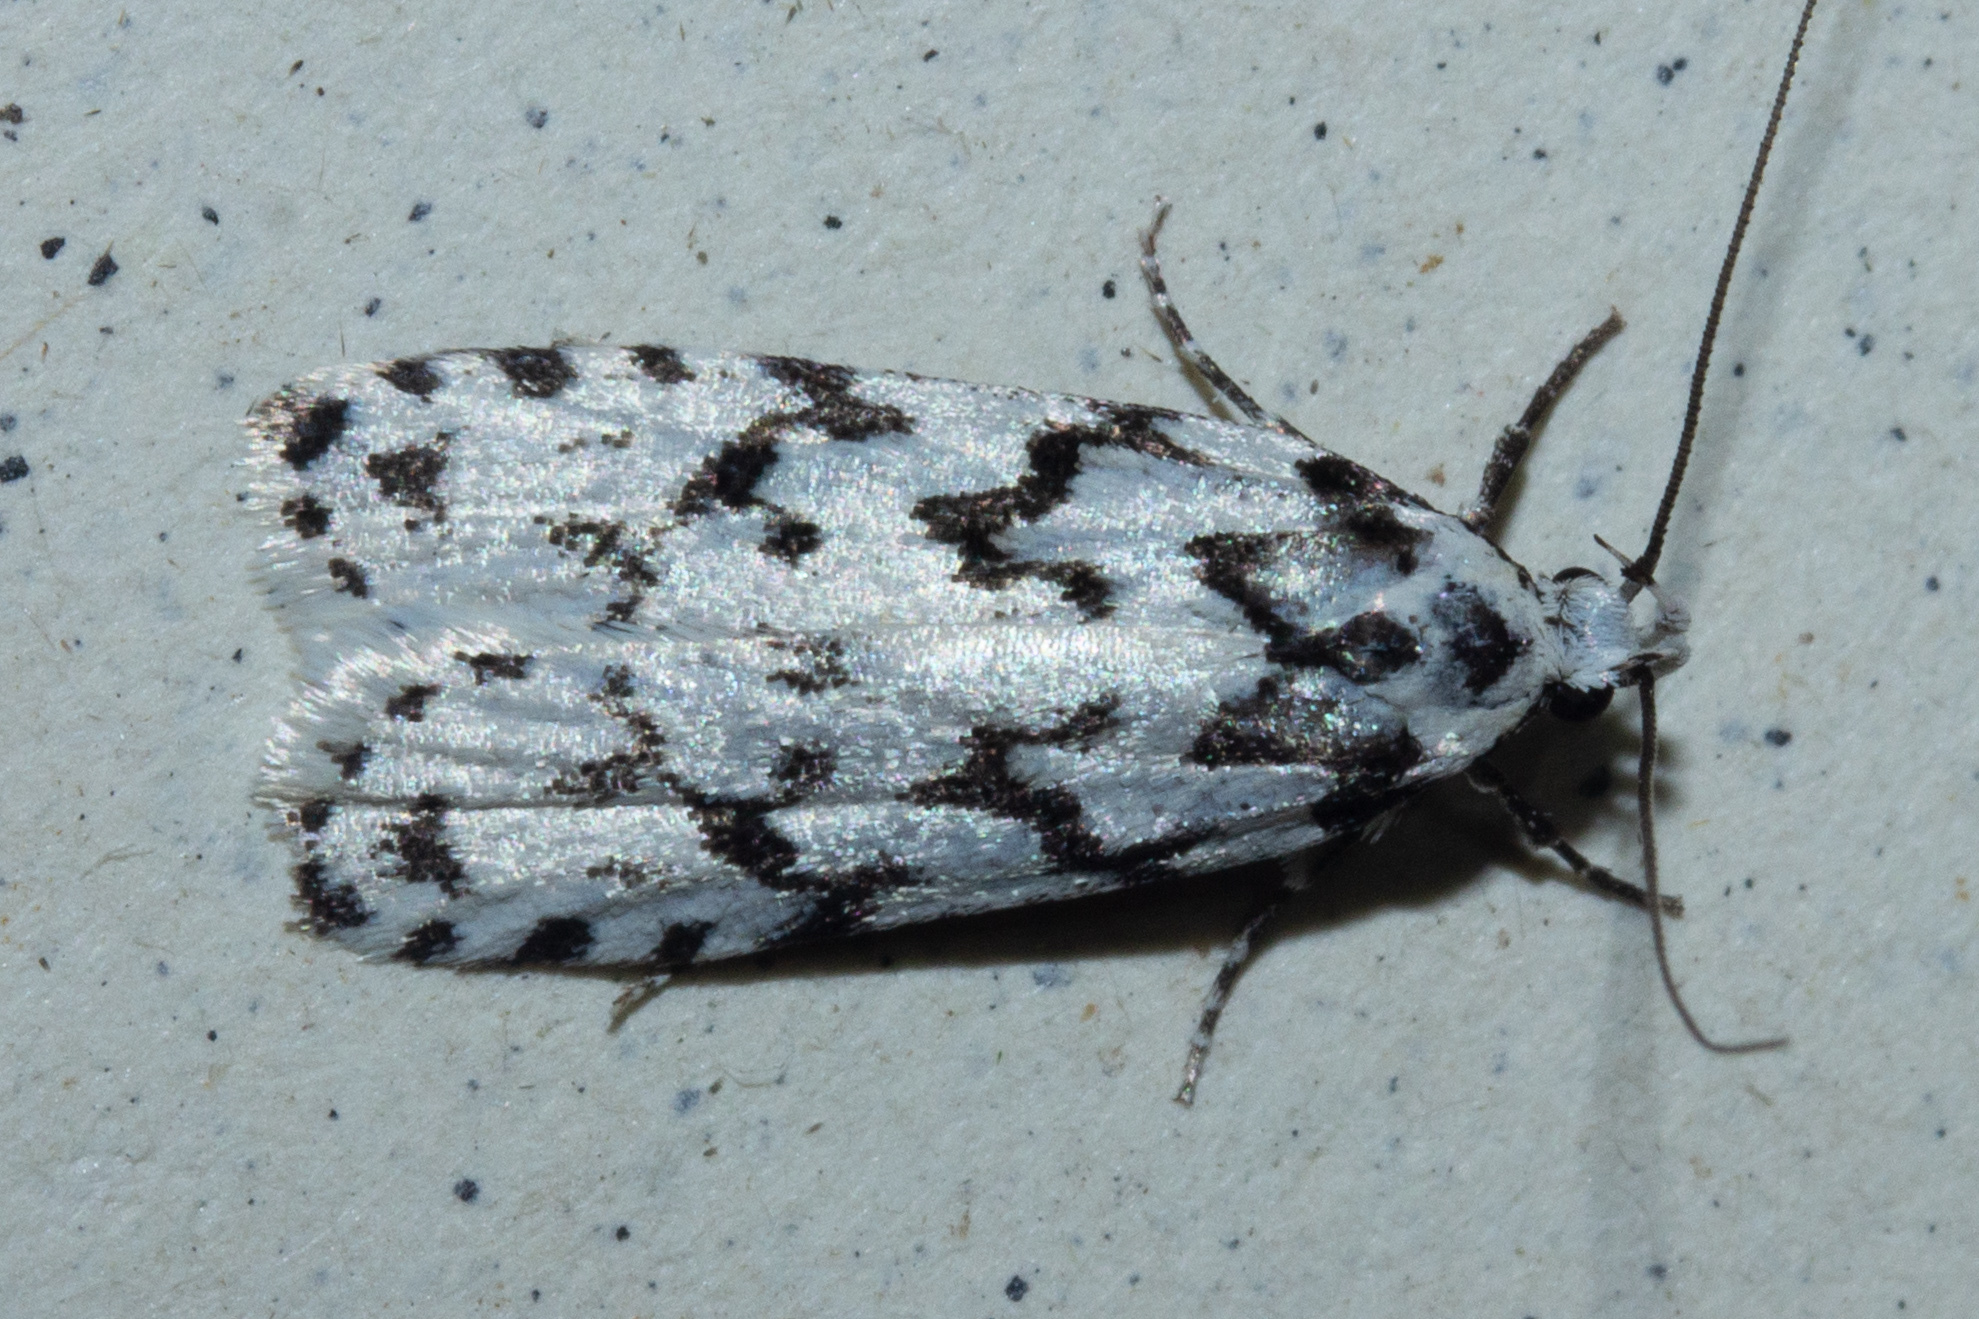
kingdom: Animalia
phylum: Arthropoda
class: Insecta
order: Lepidoptera
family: Oecophoridae
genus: Izatha
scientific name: Izatha katadiktya
